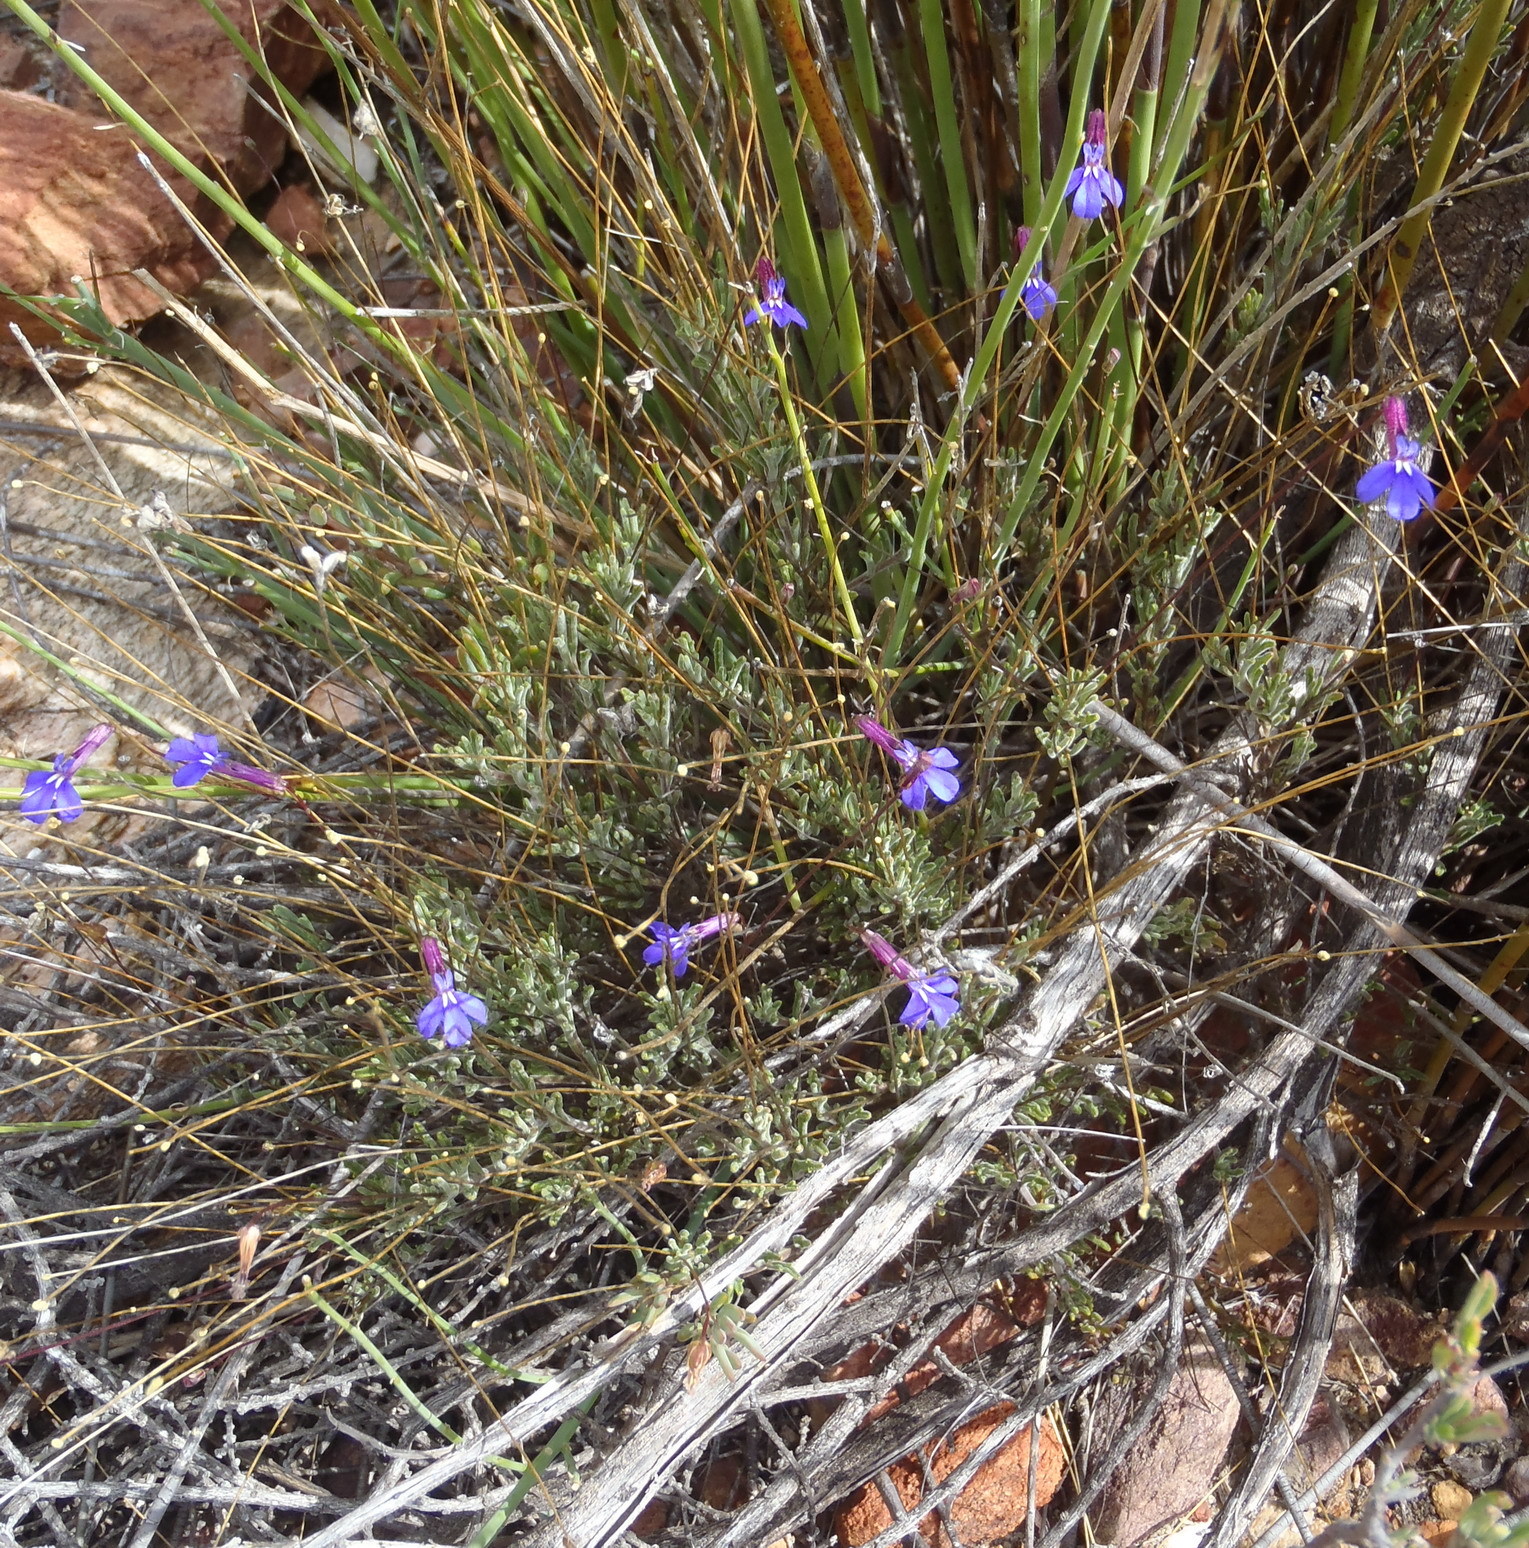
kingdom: Plantae
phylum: Tracheophyta
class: Magnoliopsida
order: Asterales
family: Campanulaceae
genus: Lobelia
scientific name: Lobelia tomentosa
